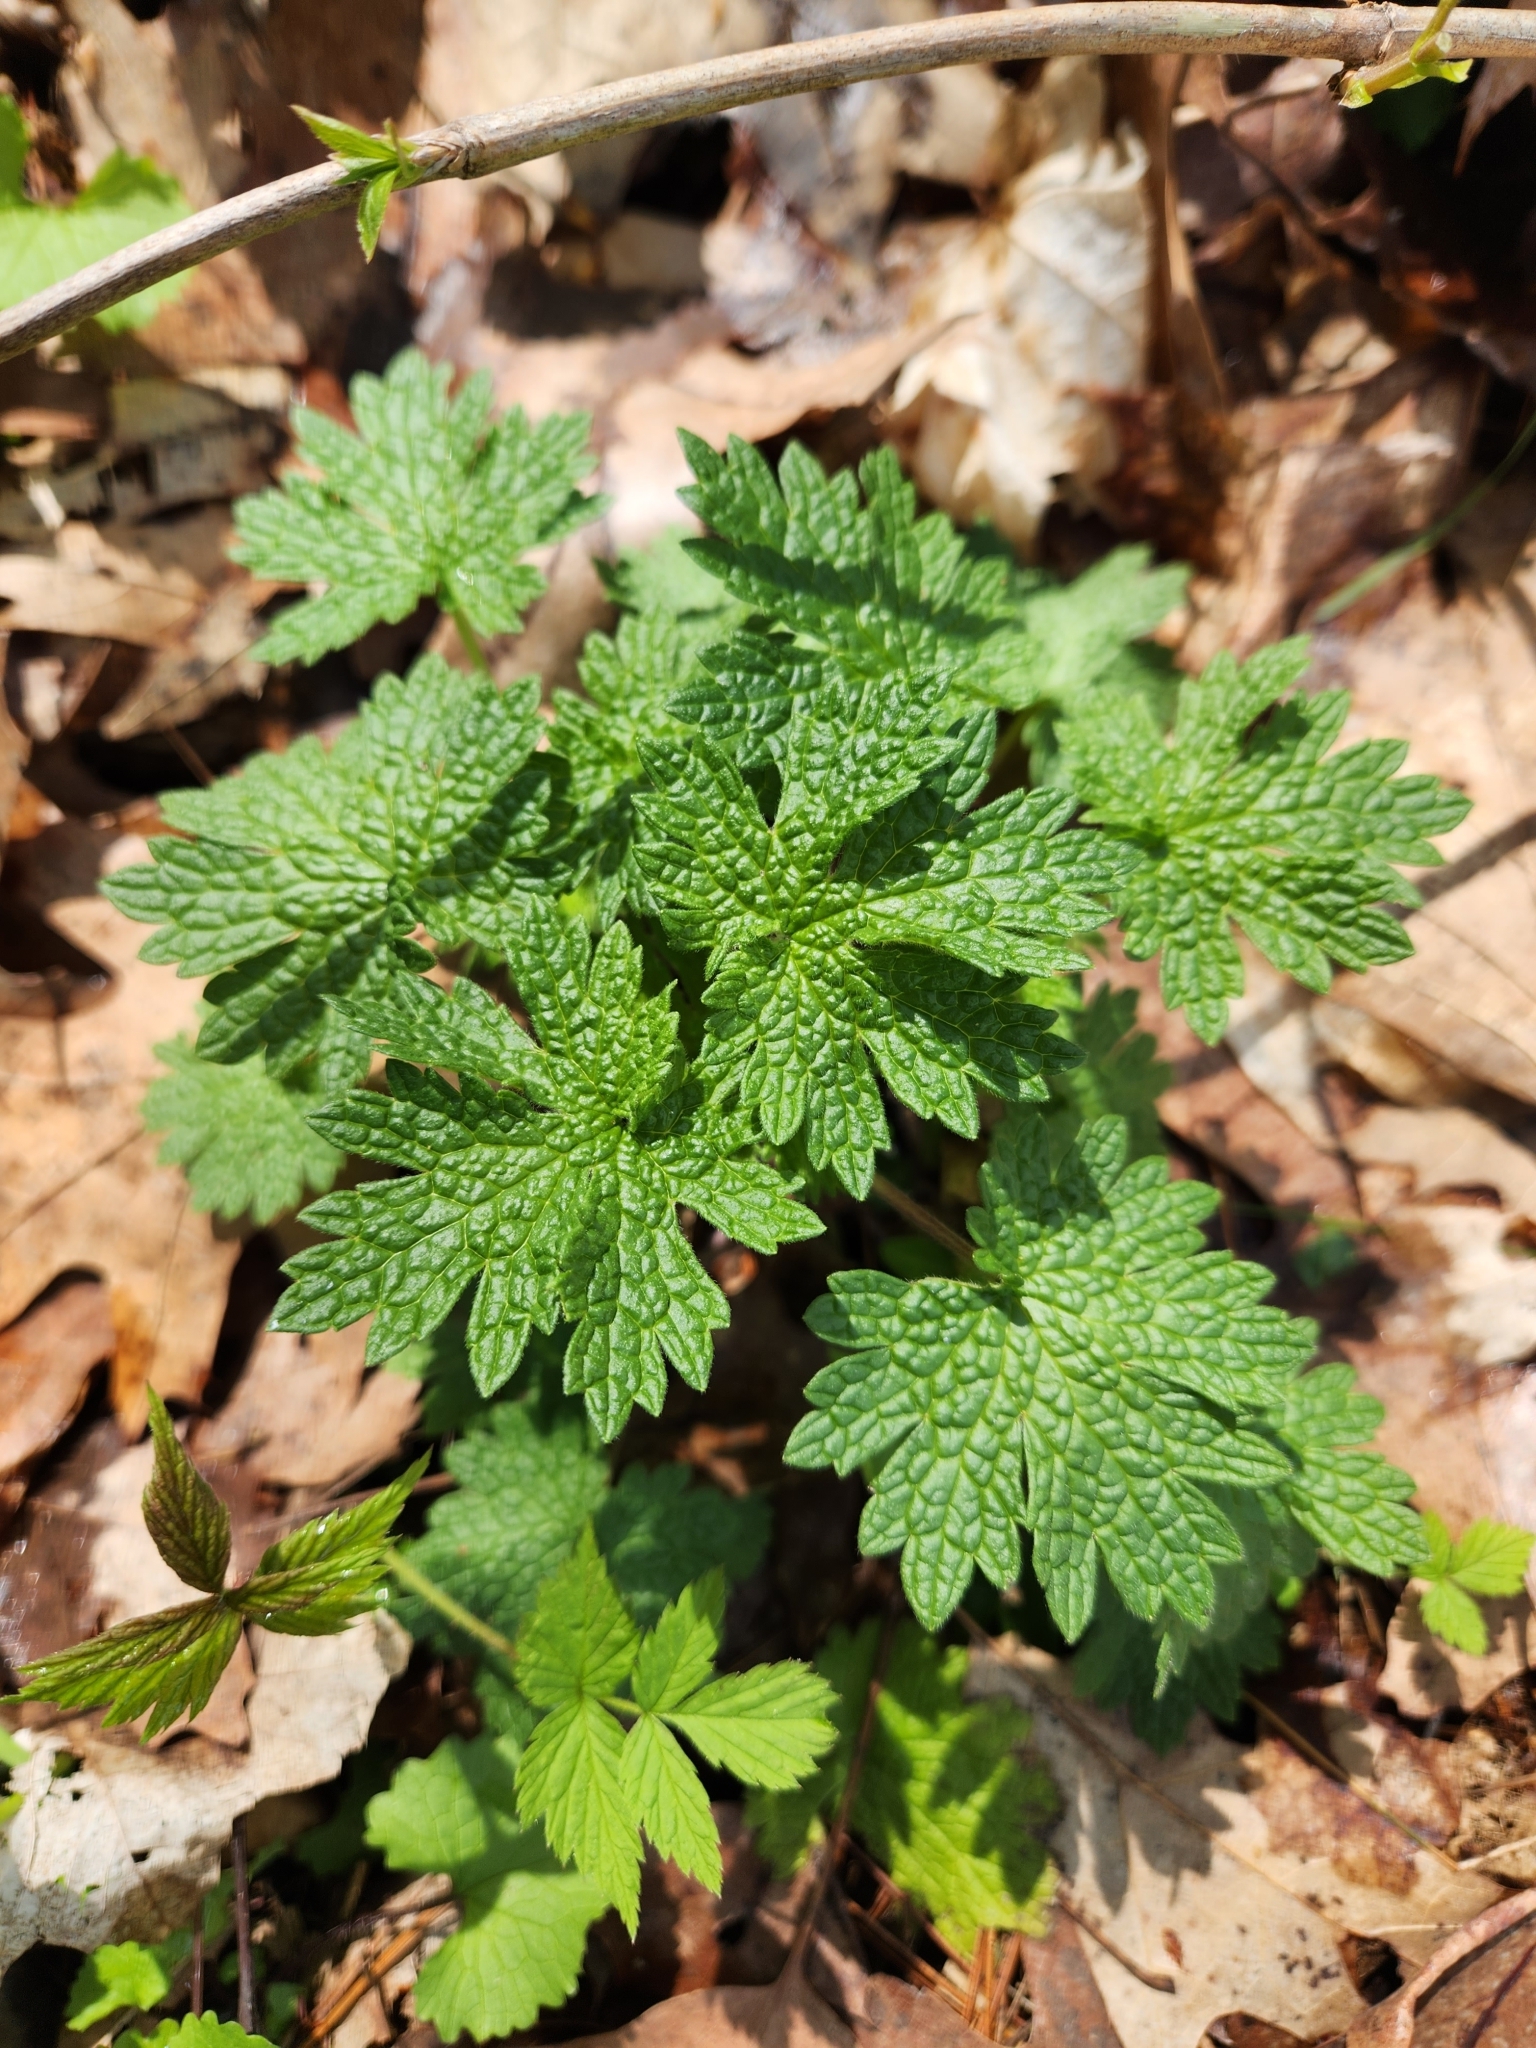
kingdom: Plantae
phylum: Tracheophyta
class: Magnoliopsida
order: Lamiales
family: Lamiaceae
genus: Leonurus
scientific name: Leonurus cardiaca
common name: Motherwort
